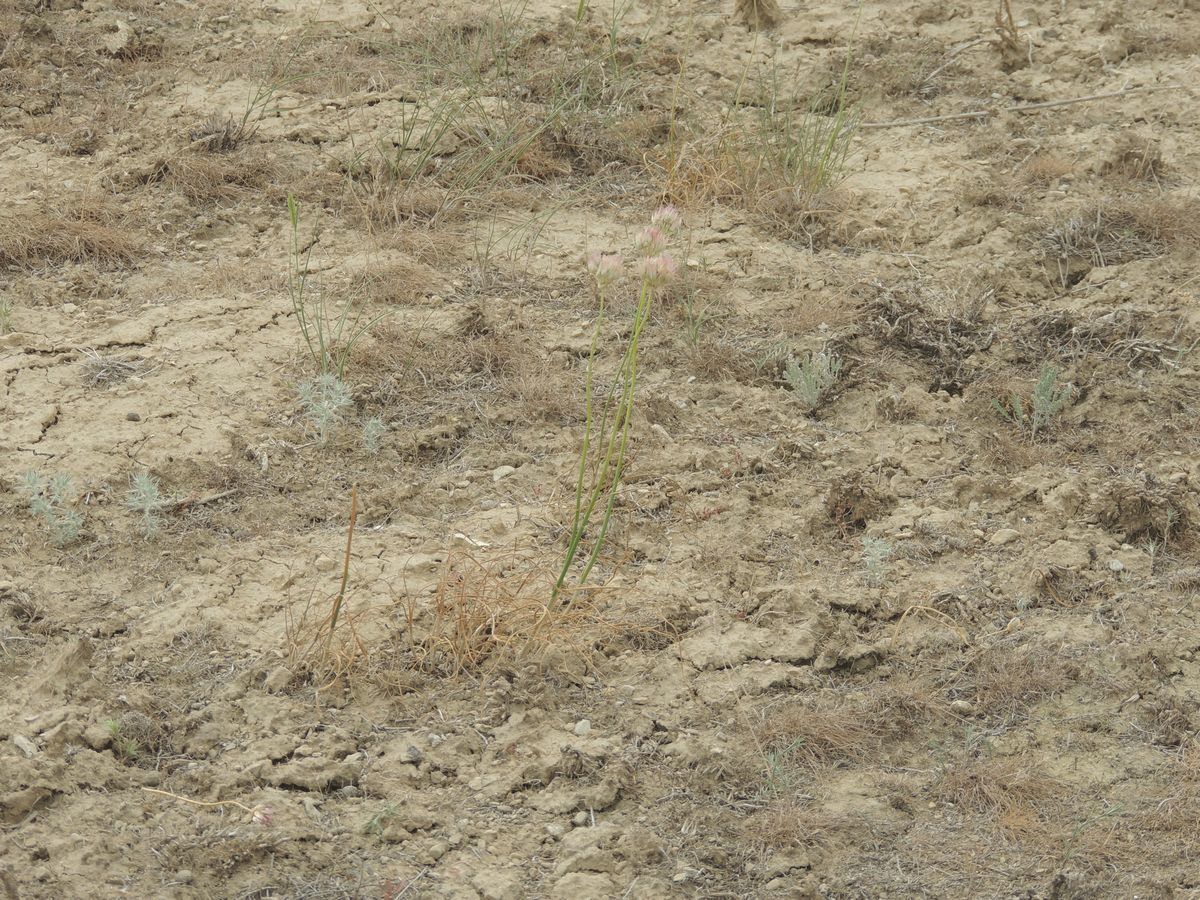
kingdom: Plantae
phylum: Tracheophyta
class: Liliopsida
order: Asparagales
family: Amaryllidaceae
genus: Allium
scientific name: Allium inderiense
